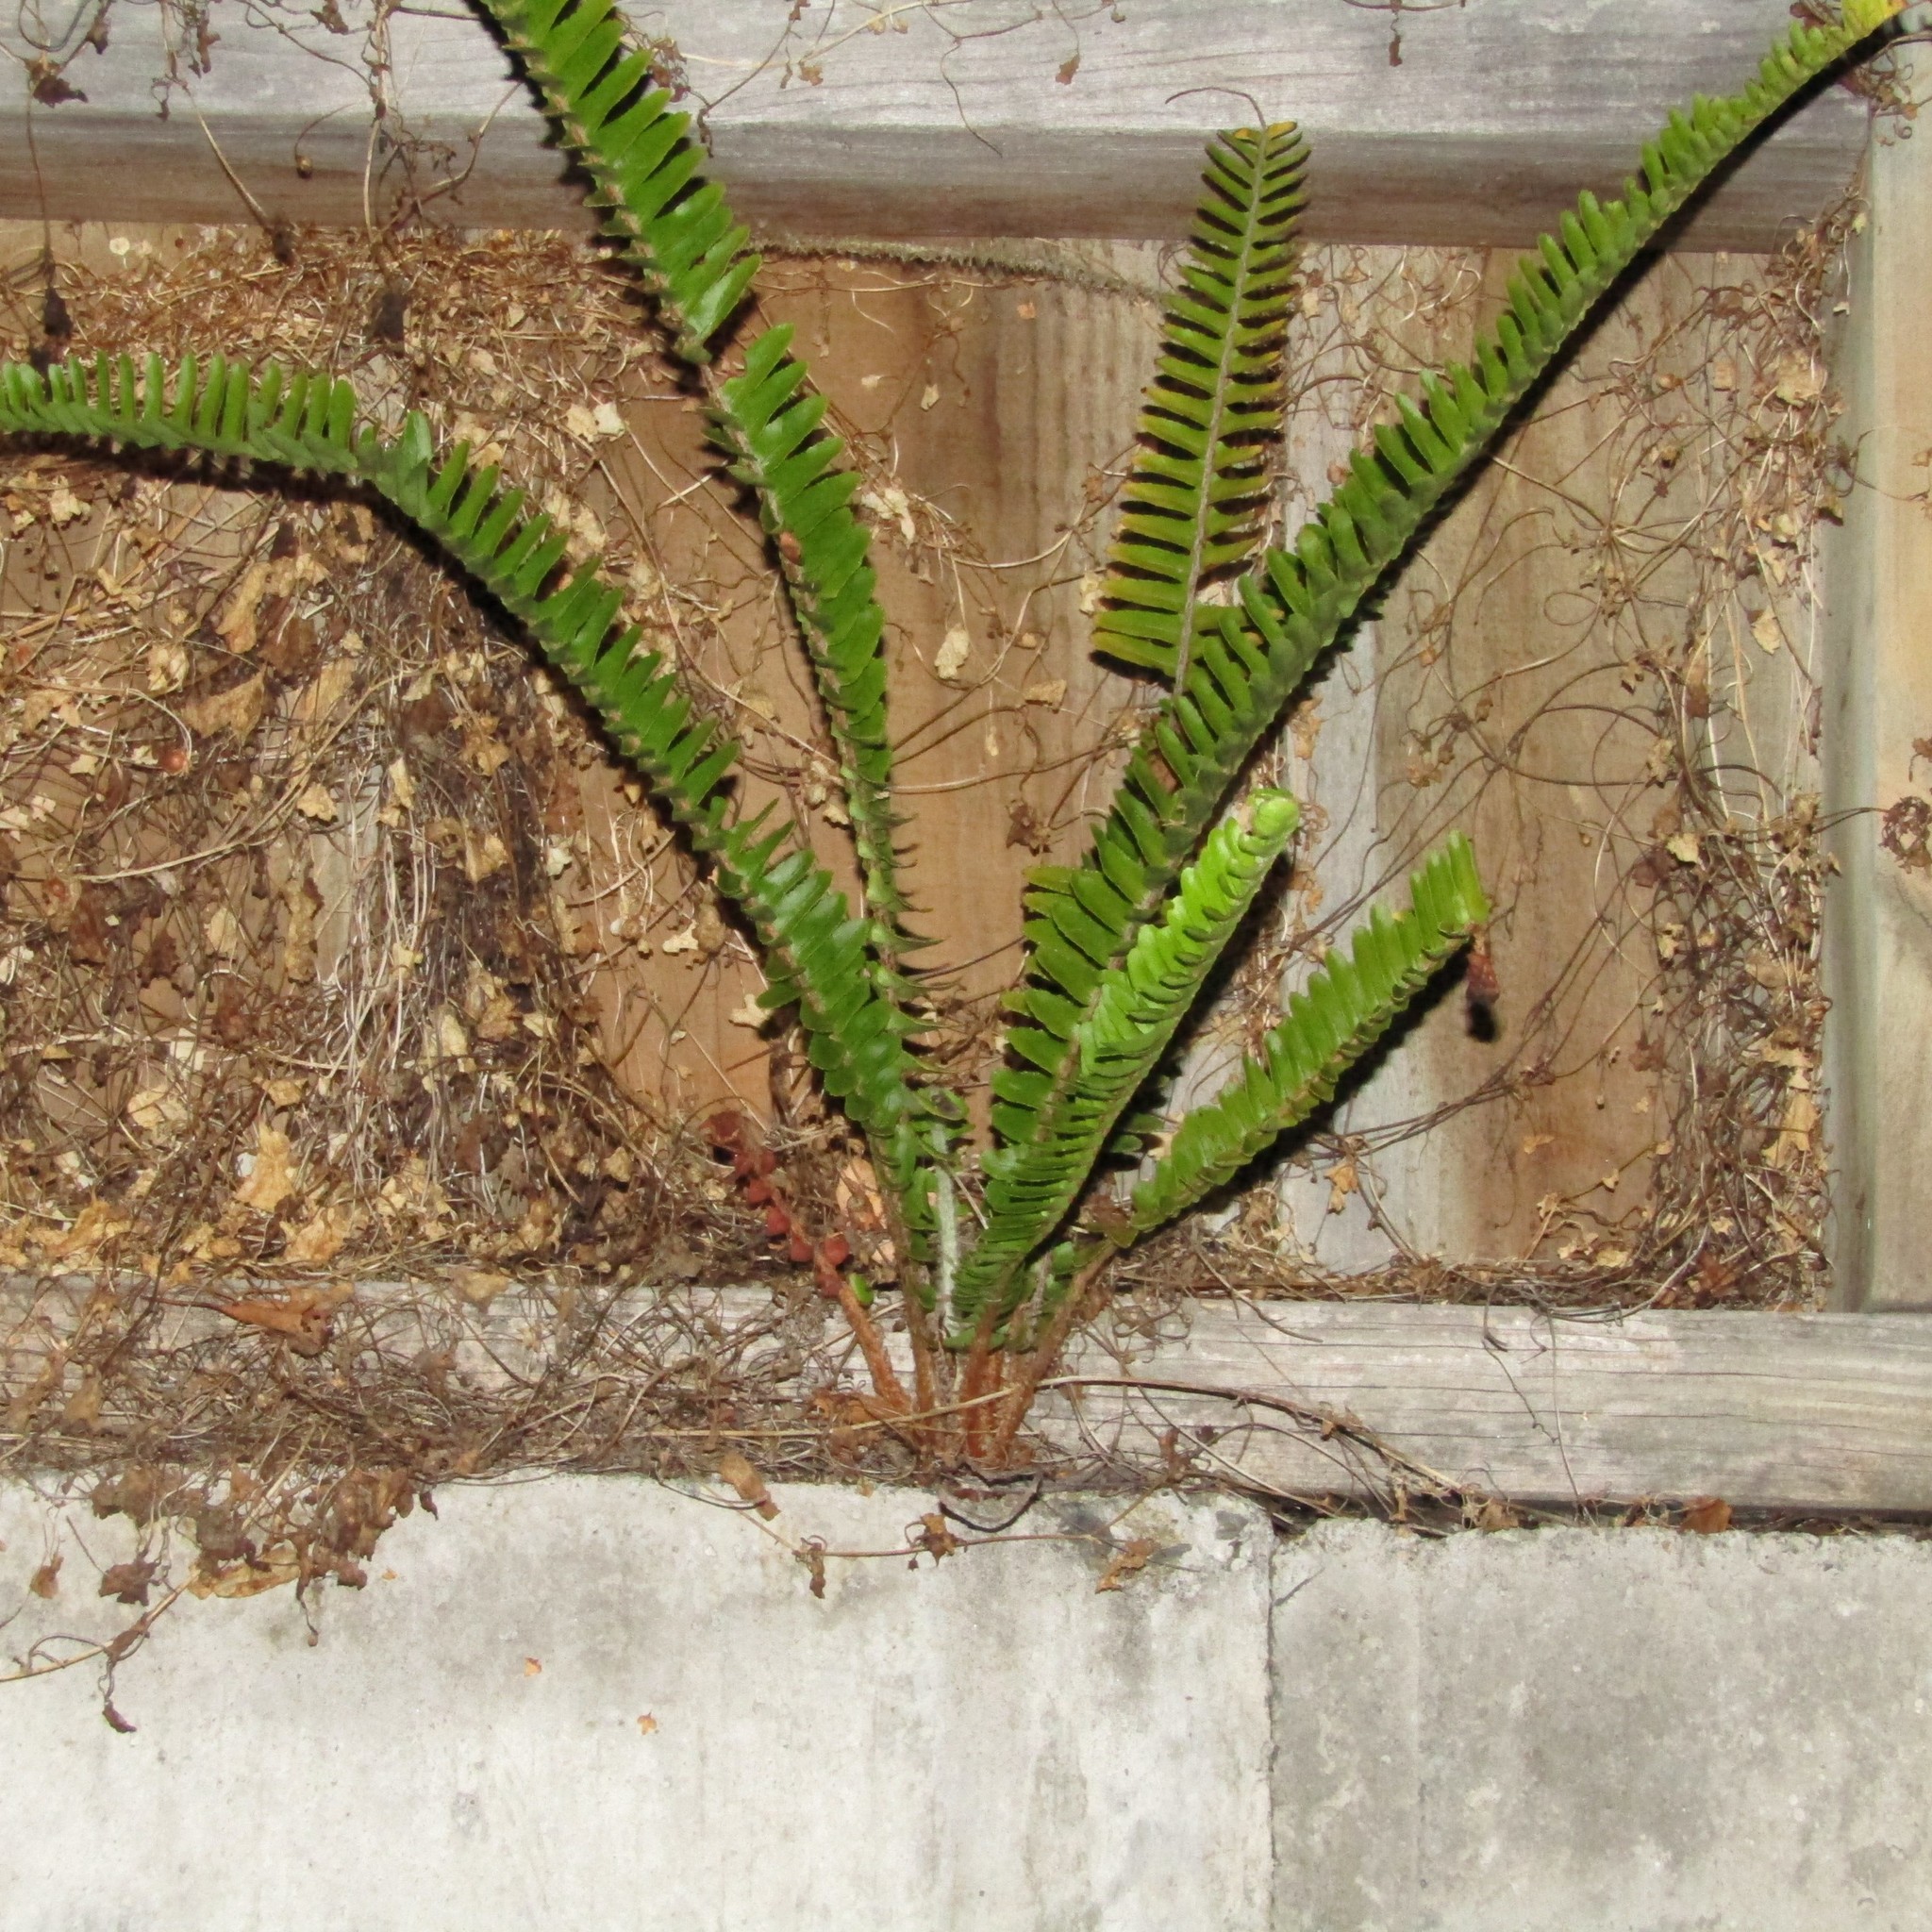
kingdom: Plantae
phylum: Tracheophyta
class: Polypodiopsida
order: Polypodiales
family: Nephrolepidaceae
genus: Nephrolepis
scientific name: Nephrolepis cordifolia
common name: Narrow swordfern
